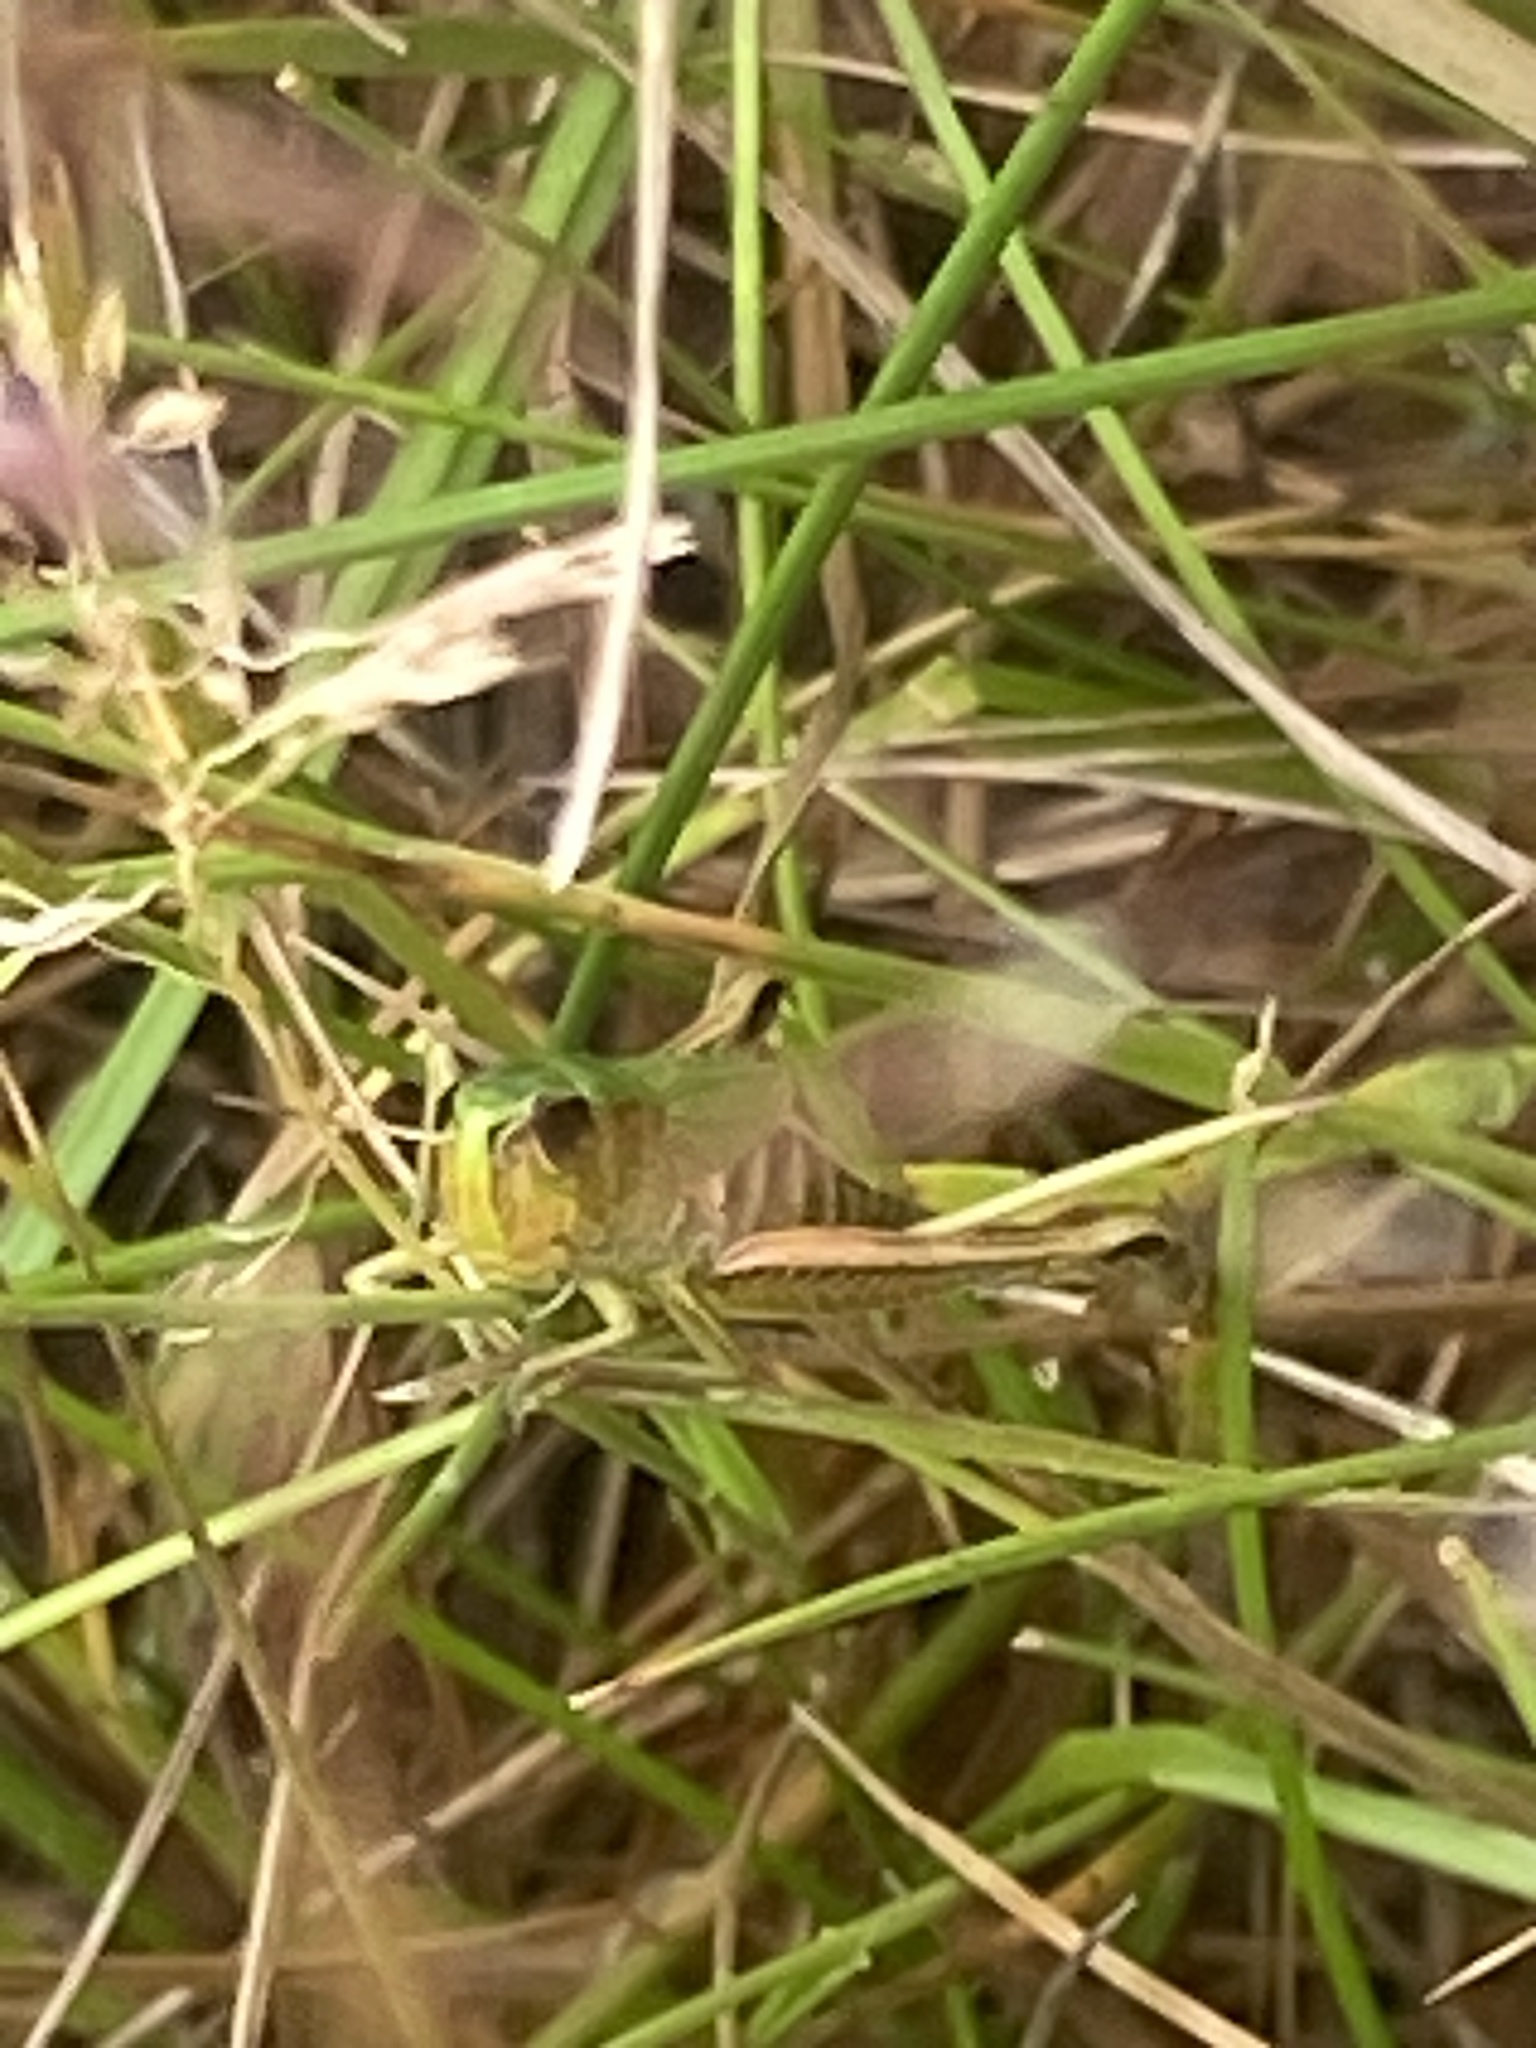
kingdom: Animalia
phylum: Arthropoda
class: Insecta
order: Orthoptera
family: Acrididae
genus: Pseudochorthippus
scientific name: Pseudochorthippus parallelus
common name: Meadow grasshopper
